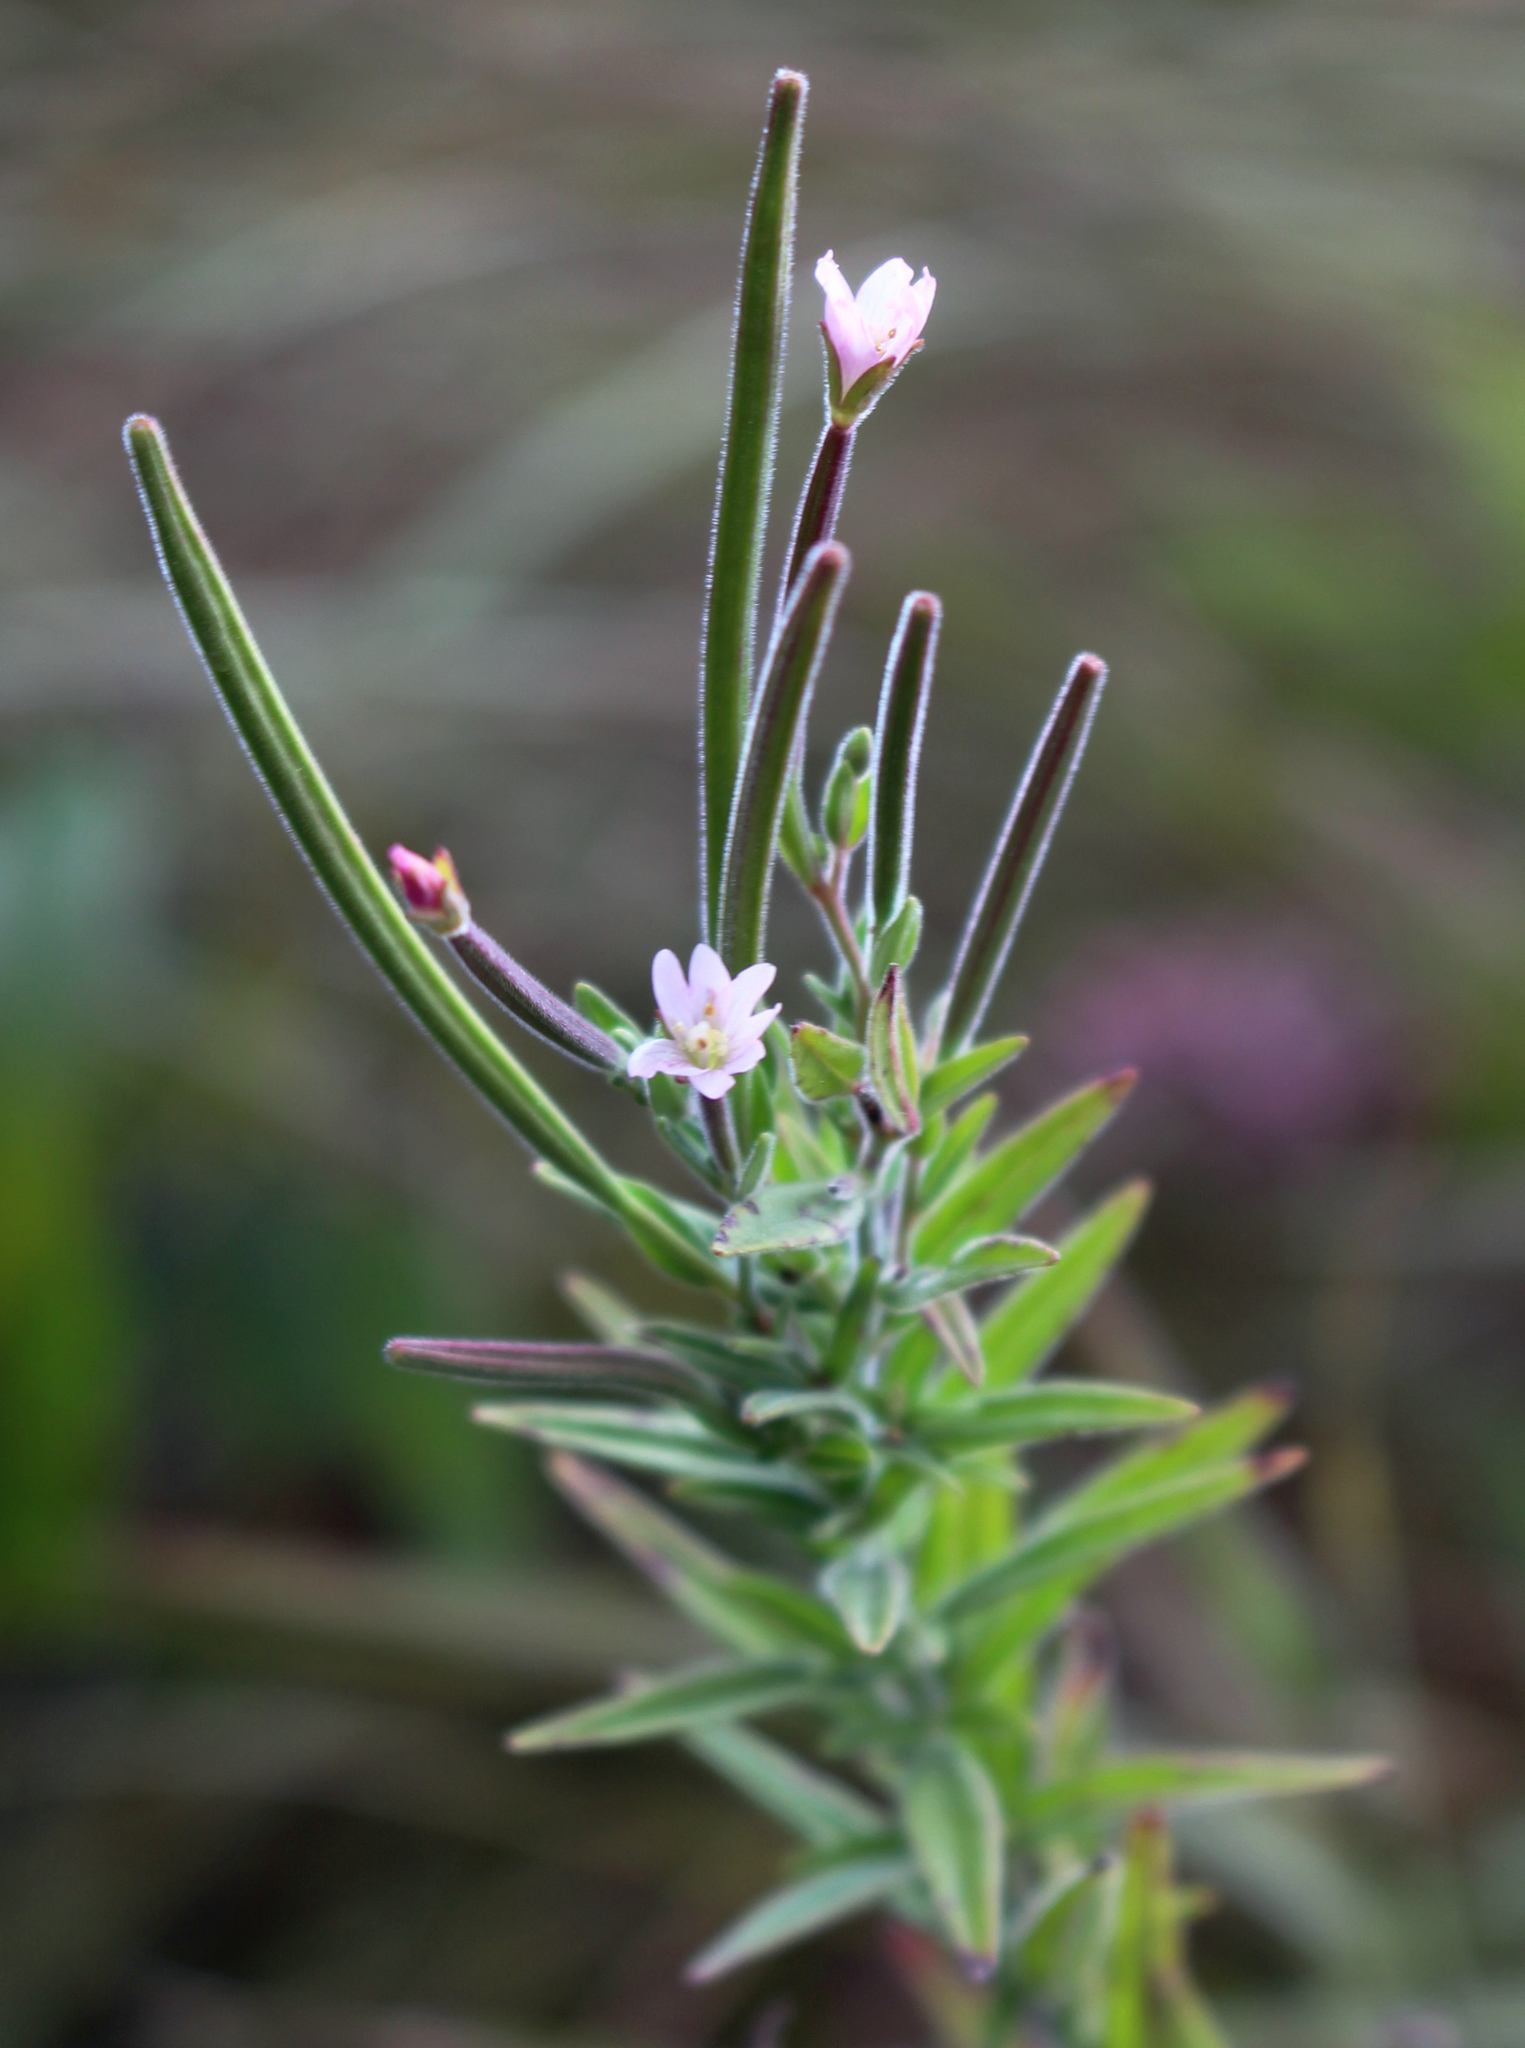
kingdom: Plantae
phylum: Tracheophyta
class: Magnoliopsida
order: Myrtales
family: Onagraceae
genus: Epilobium
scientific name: Epilobium densum
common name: Downy willowherb
